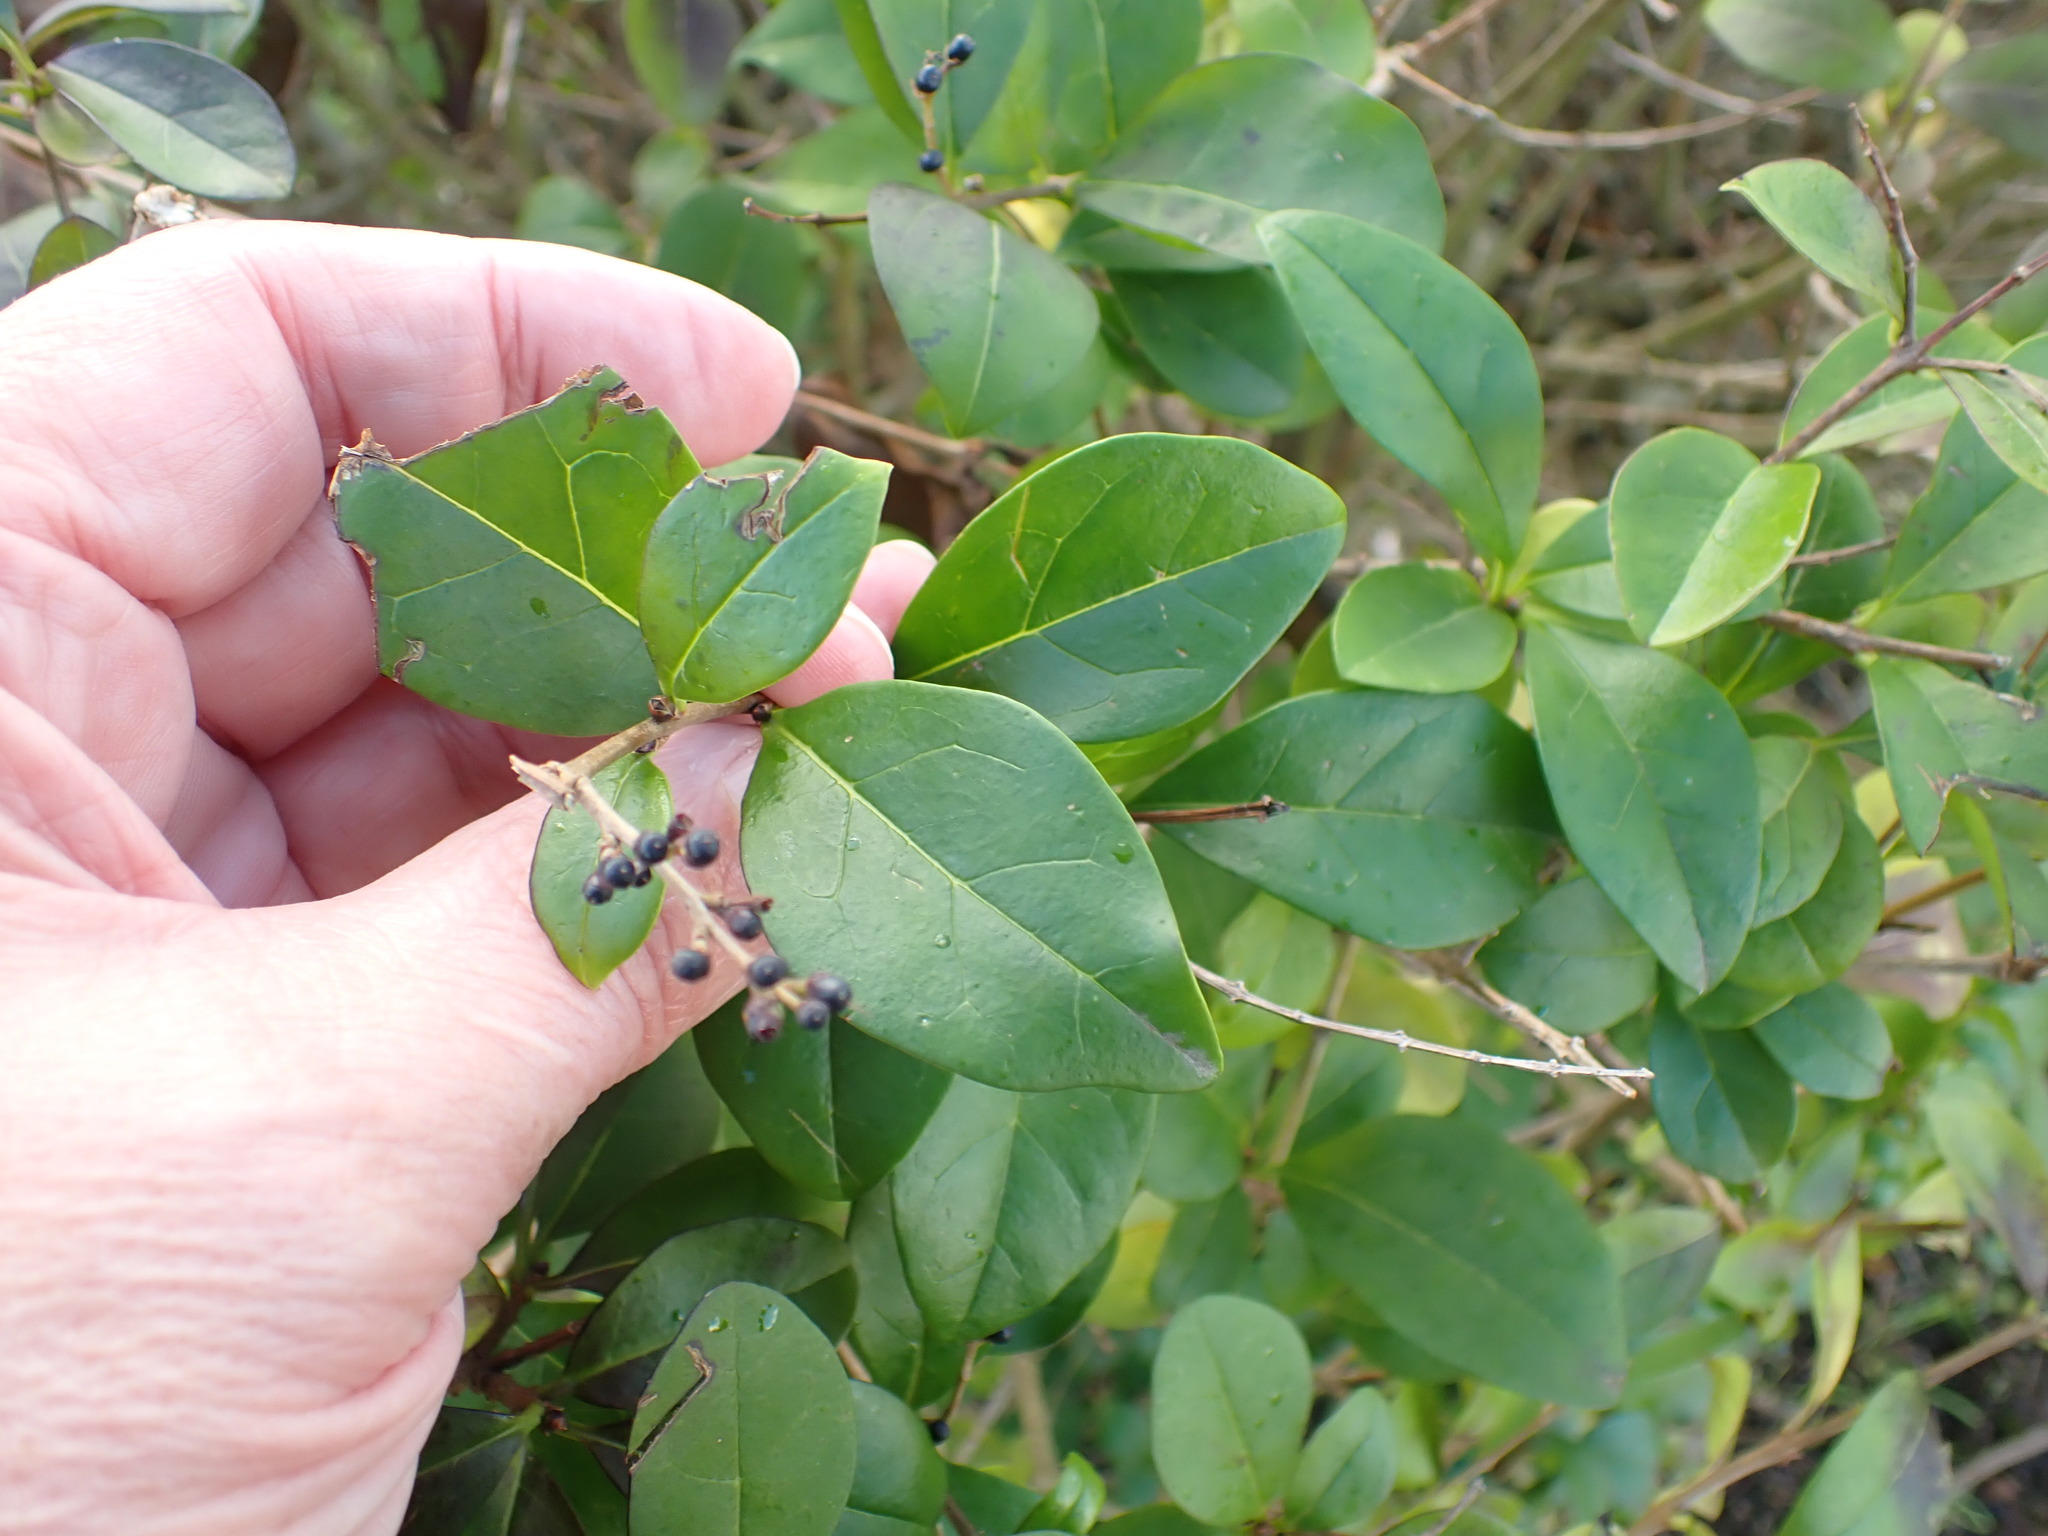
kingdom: Plantae
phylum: Tracheophyta
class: Magnoliopsida
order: Lamiales
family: Oleaceae
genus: Ligustrum
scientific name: Ligustrum ovalifolium
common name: California privet
